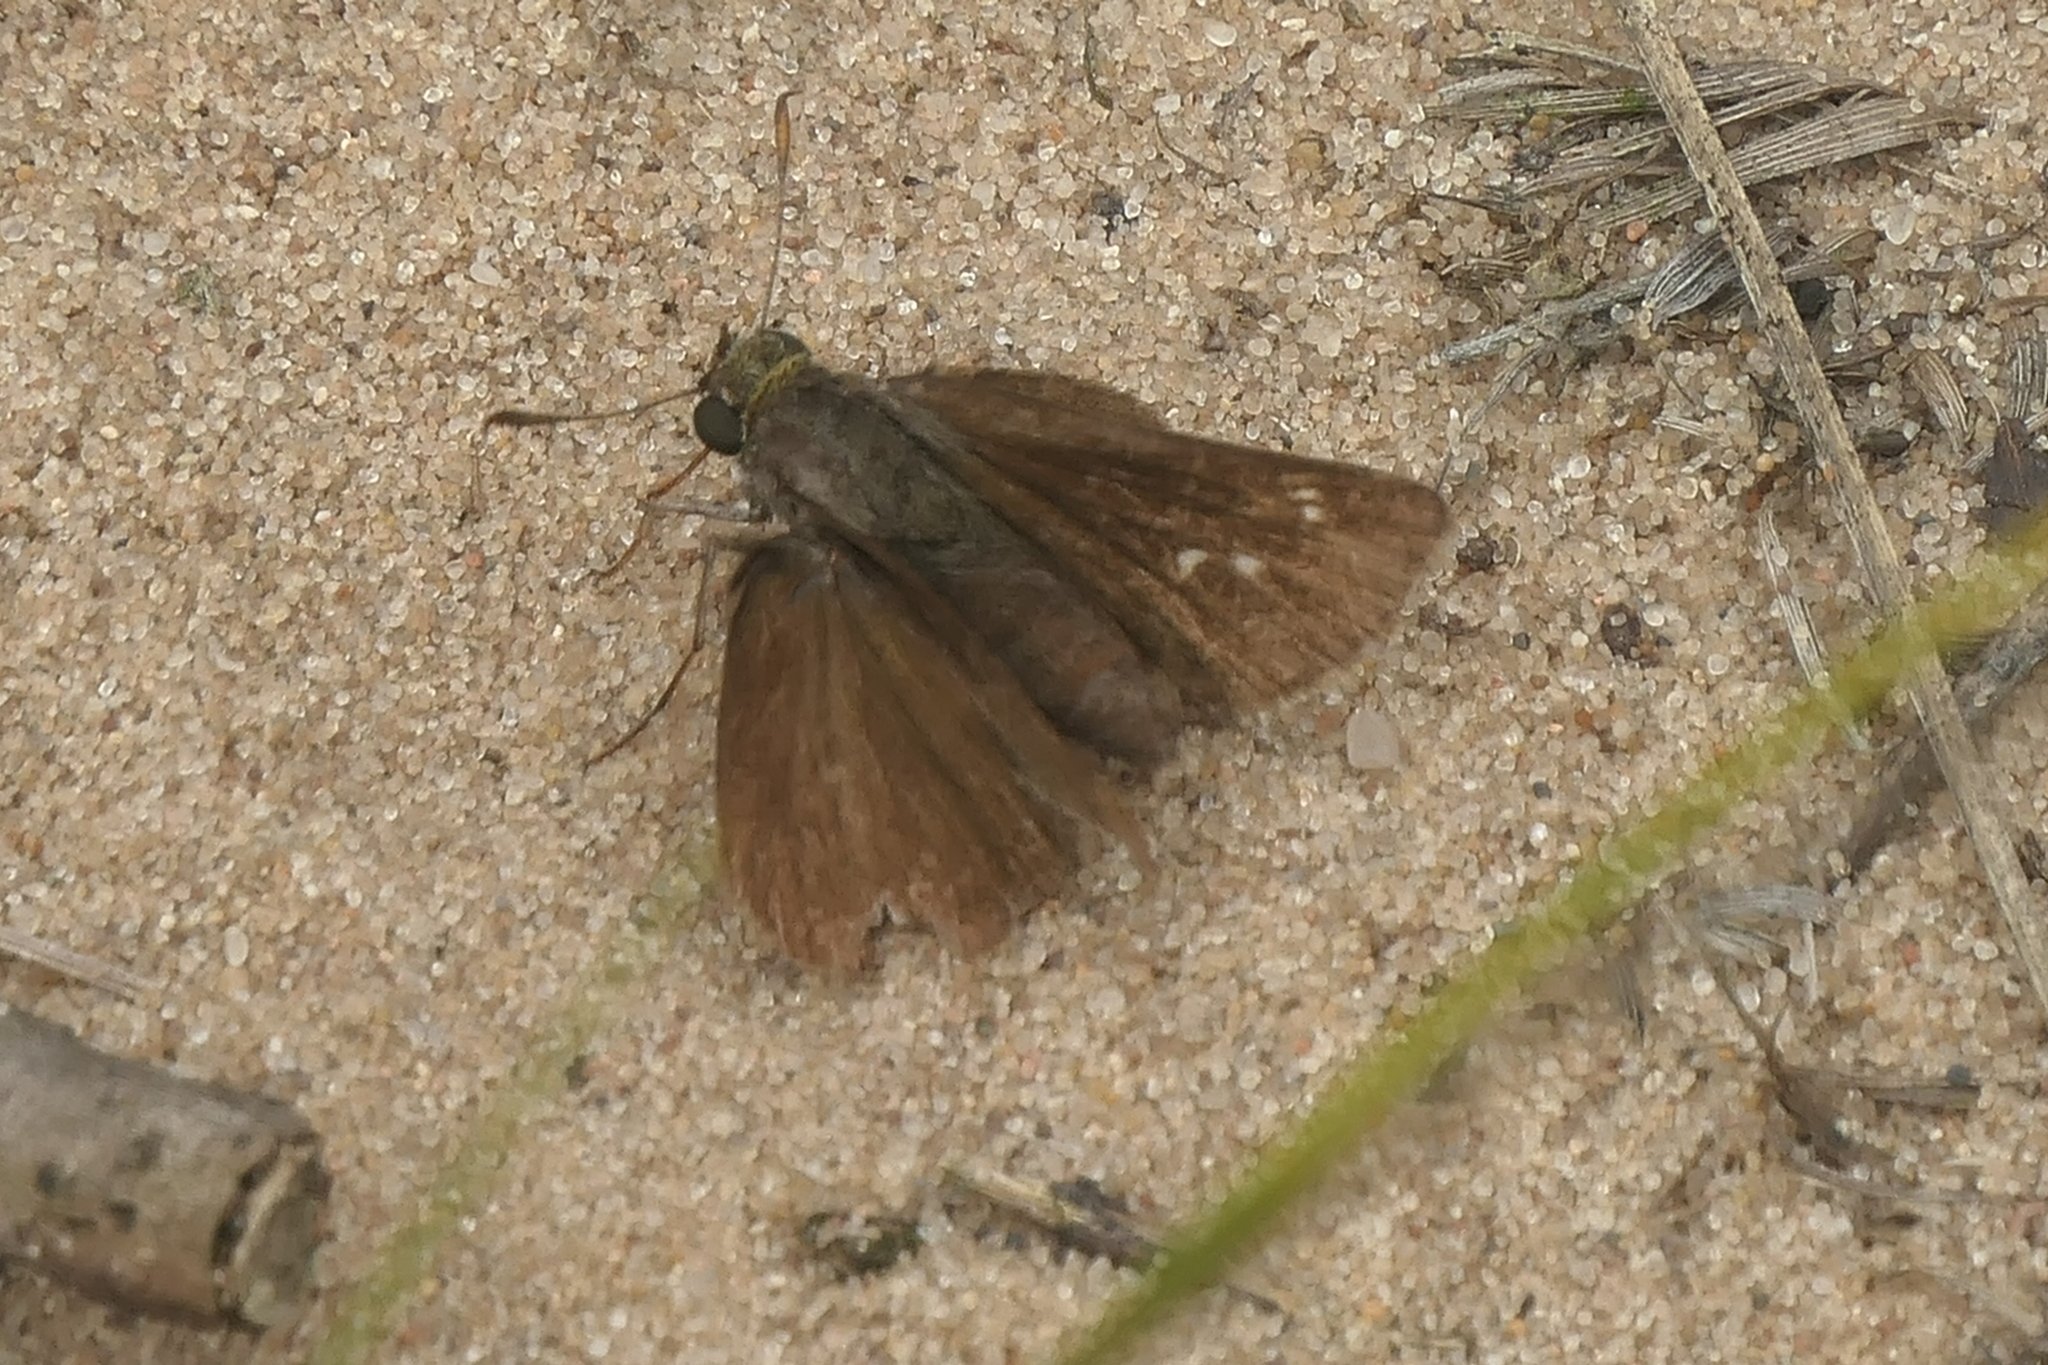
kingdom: Animalia
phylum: Arthropoda
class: Insecta
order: Lepidoptera
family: Hesperiidae
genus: Euphyes
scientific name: Euphyes vestris
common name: Dun skipper
